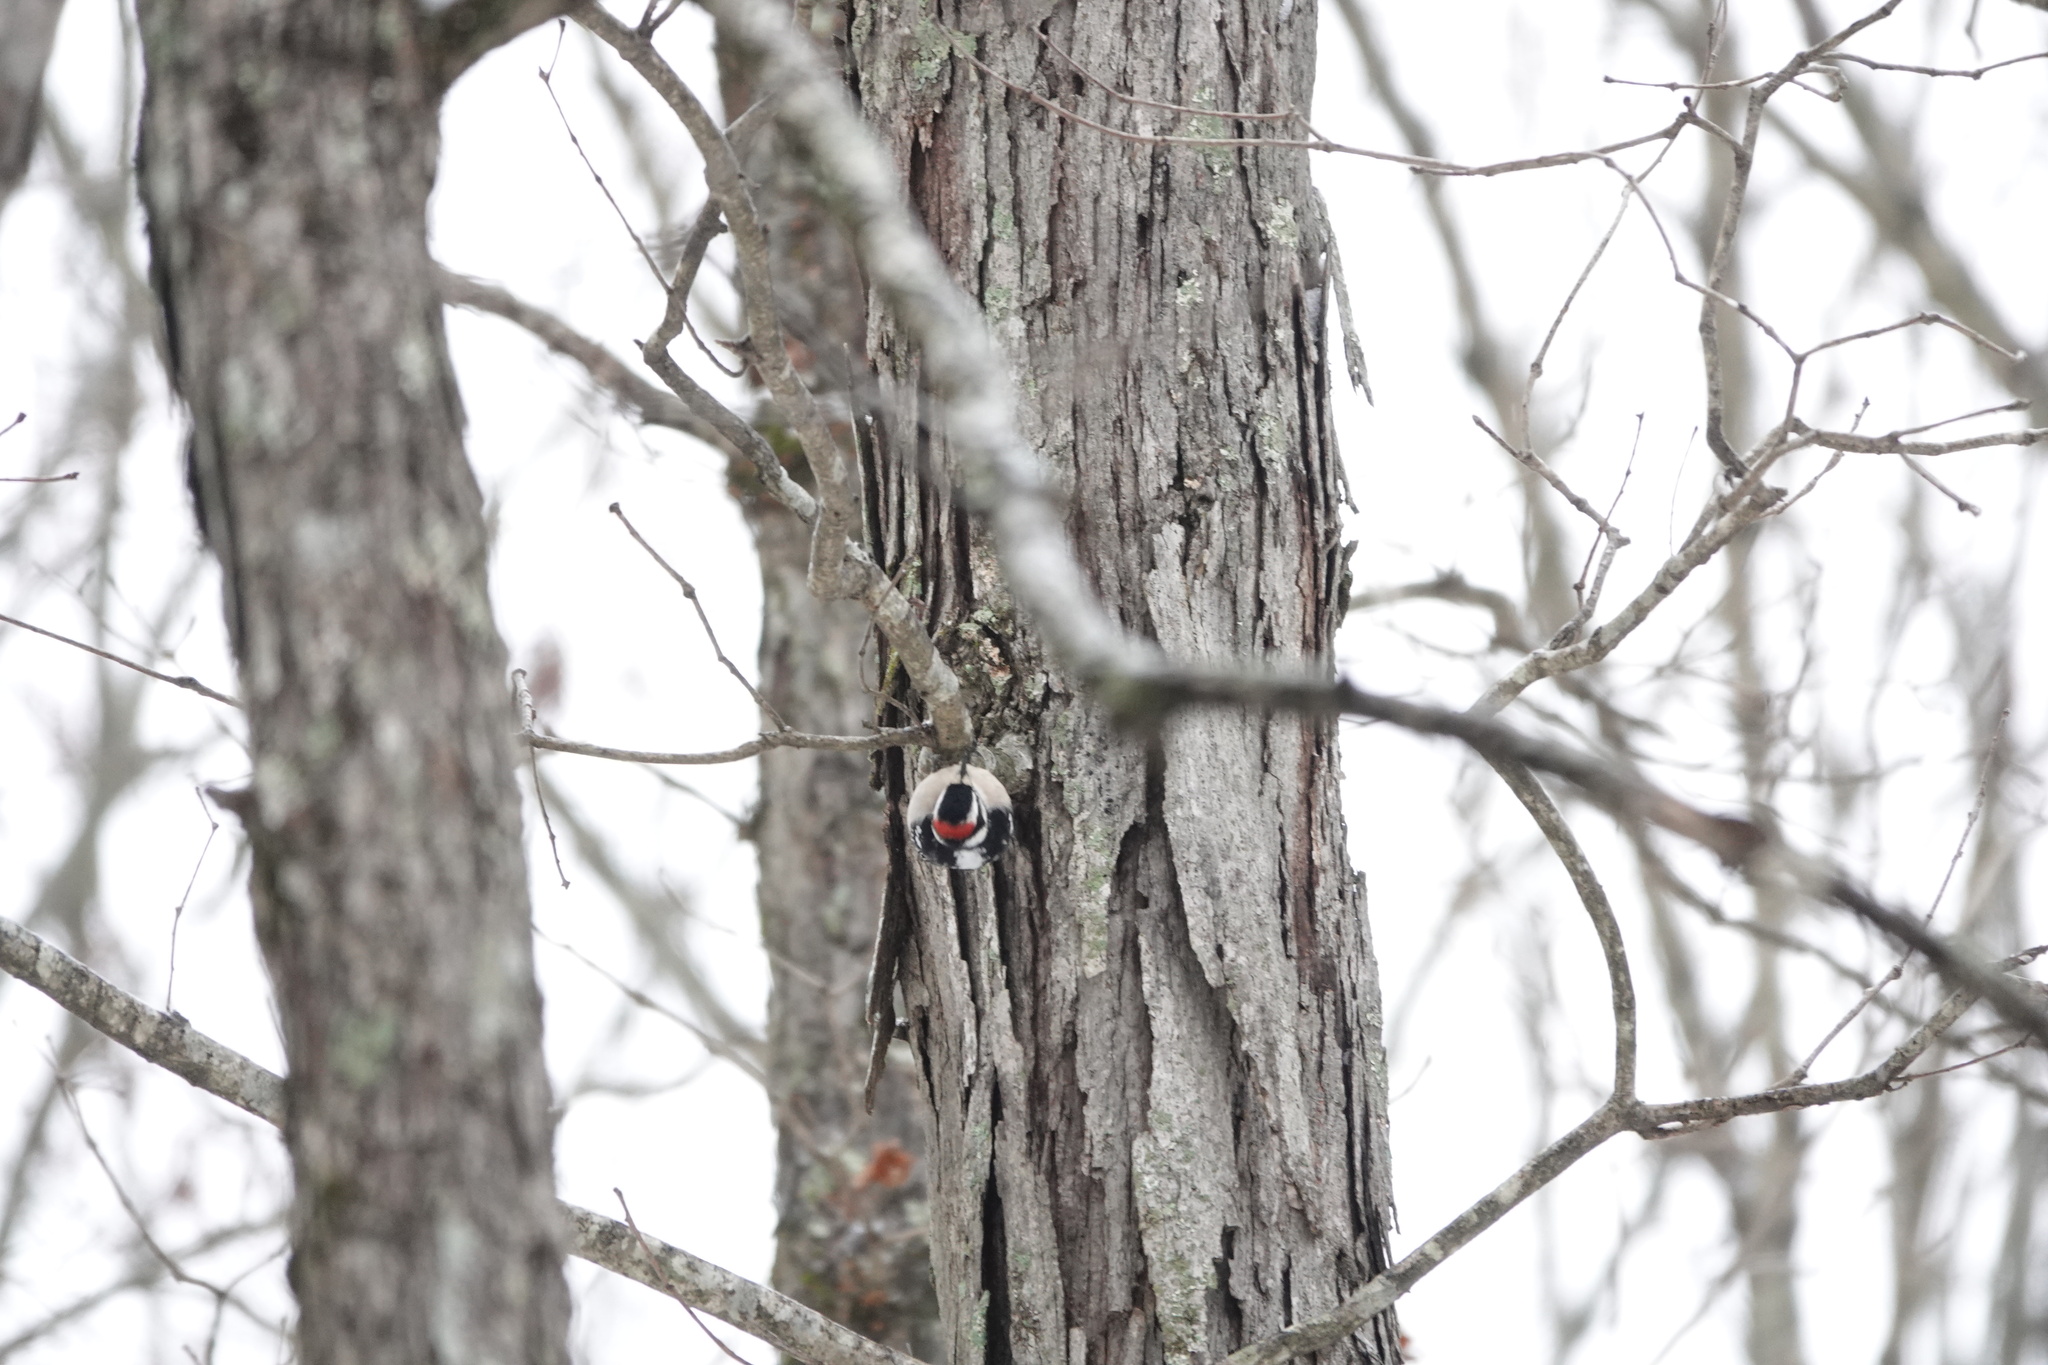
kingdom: Animalia
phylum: Chordata
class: Aves
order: Piciformes
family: Picidae
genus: Dryobates
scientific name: Dryobates pubescens
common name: Downy woodpecker
